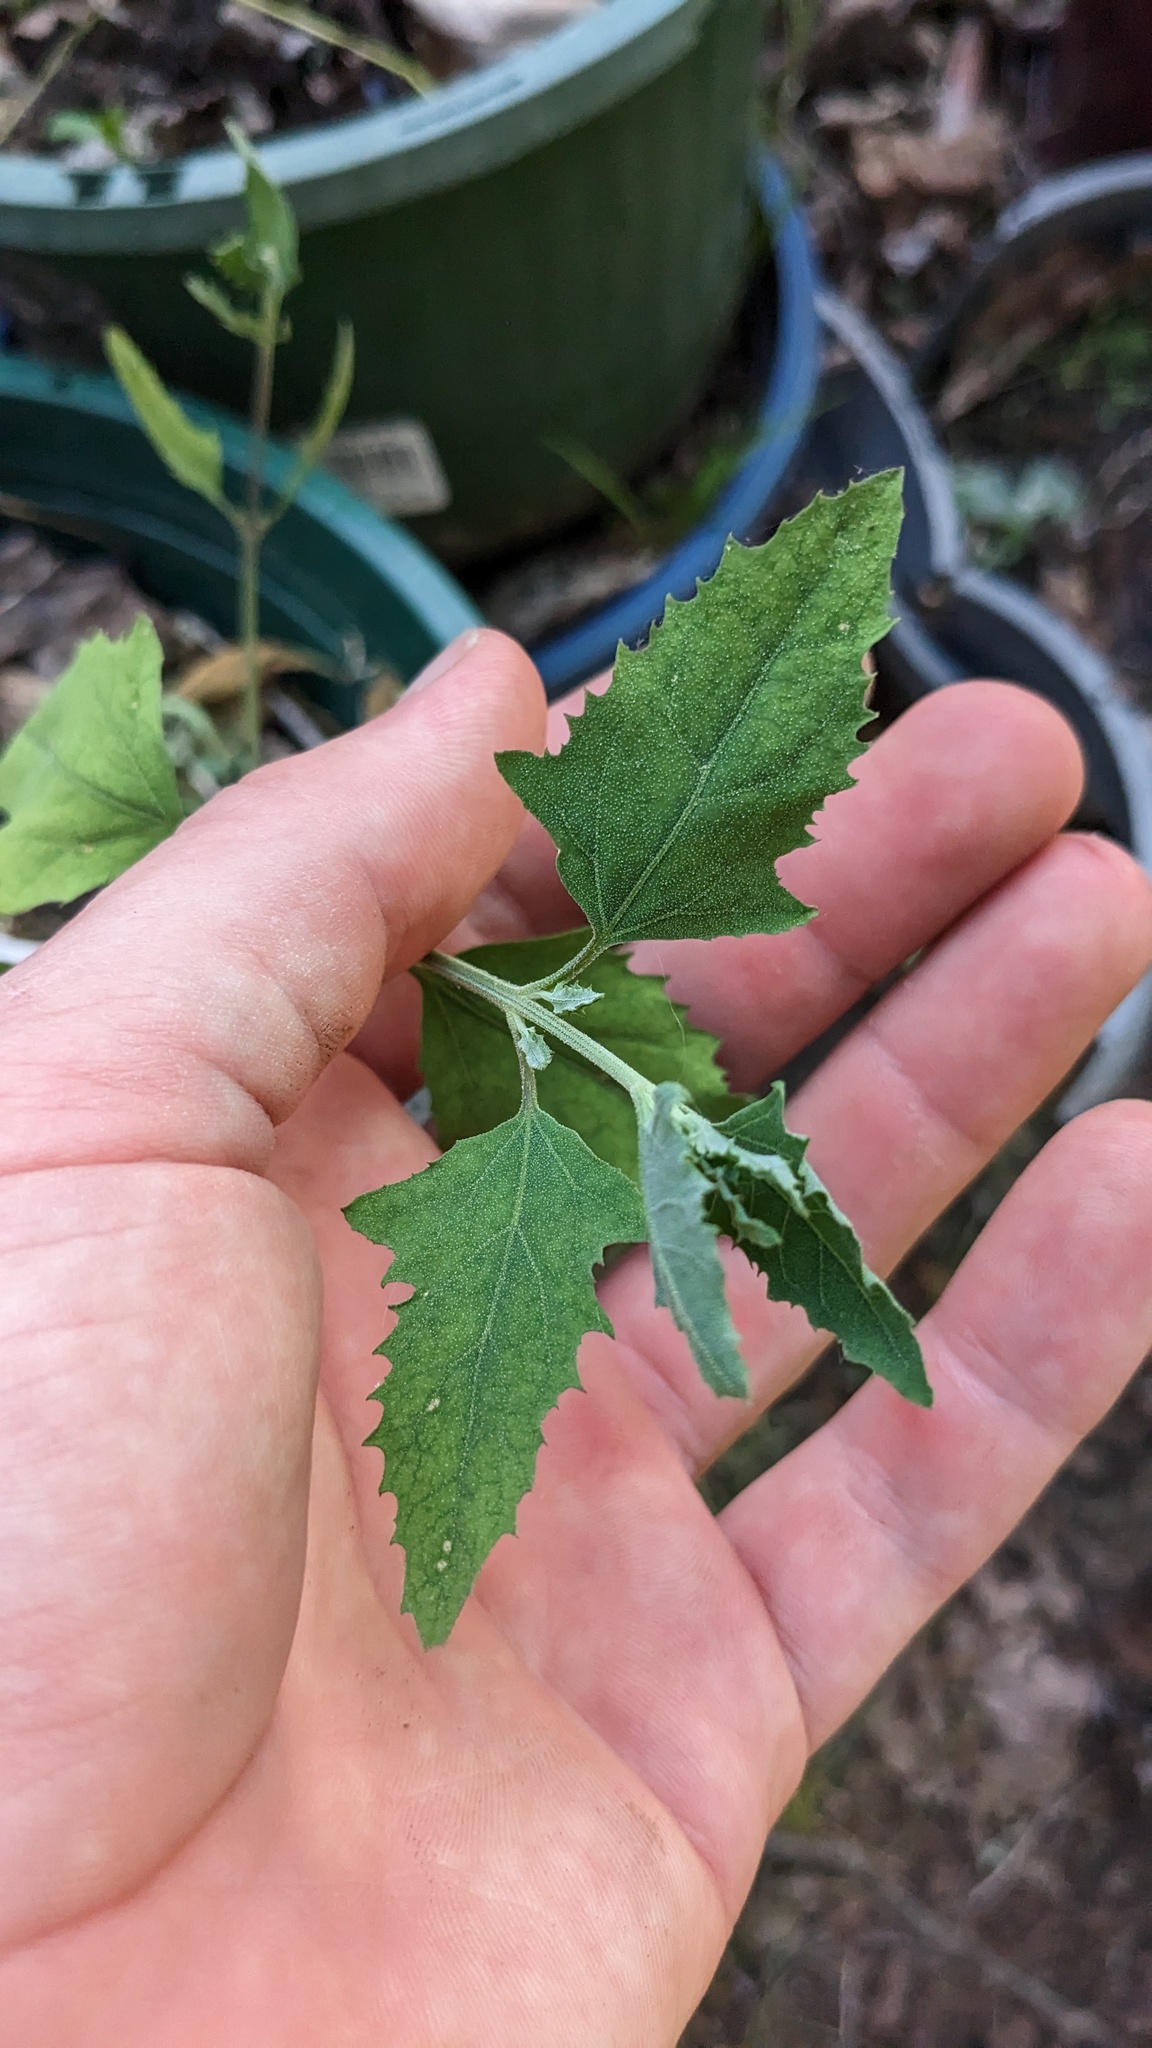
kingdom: Plantae
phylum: Tracheophyta
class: Magnoliopsida
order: Caryophyllales
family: Amaranthaceae
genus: Chenopodium
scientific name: Chenopodium album
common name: Fat-hen
